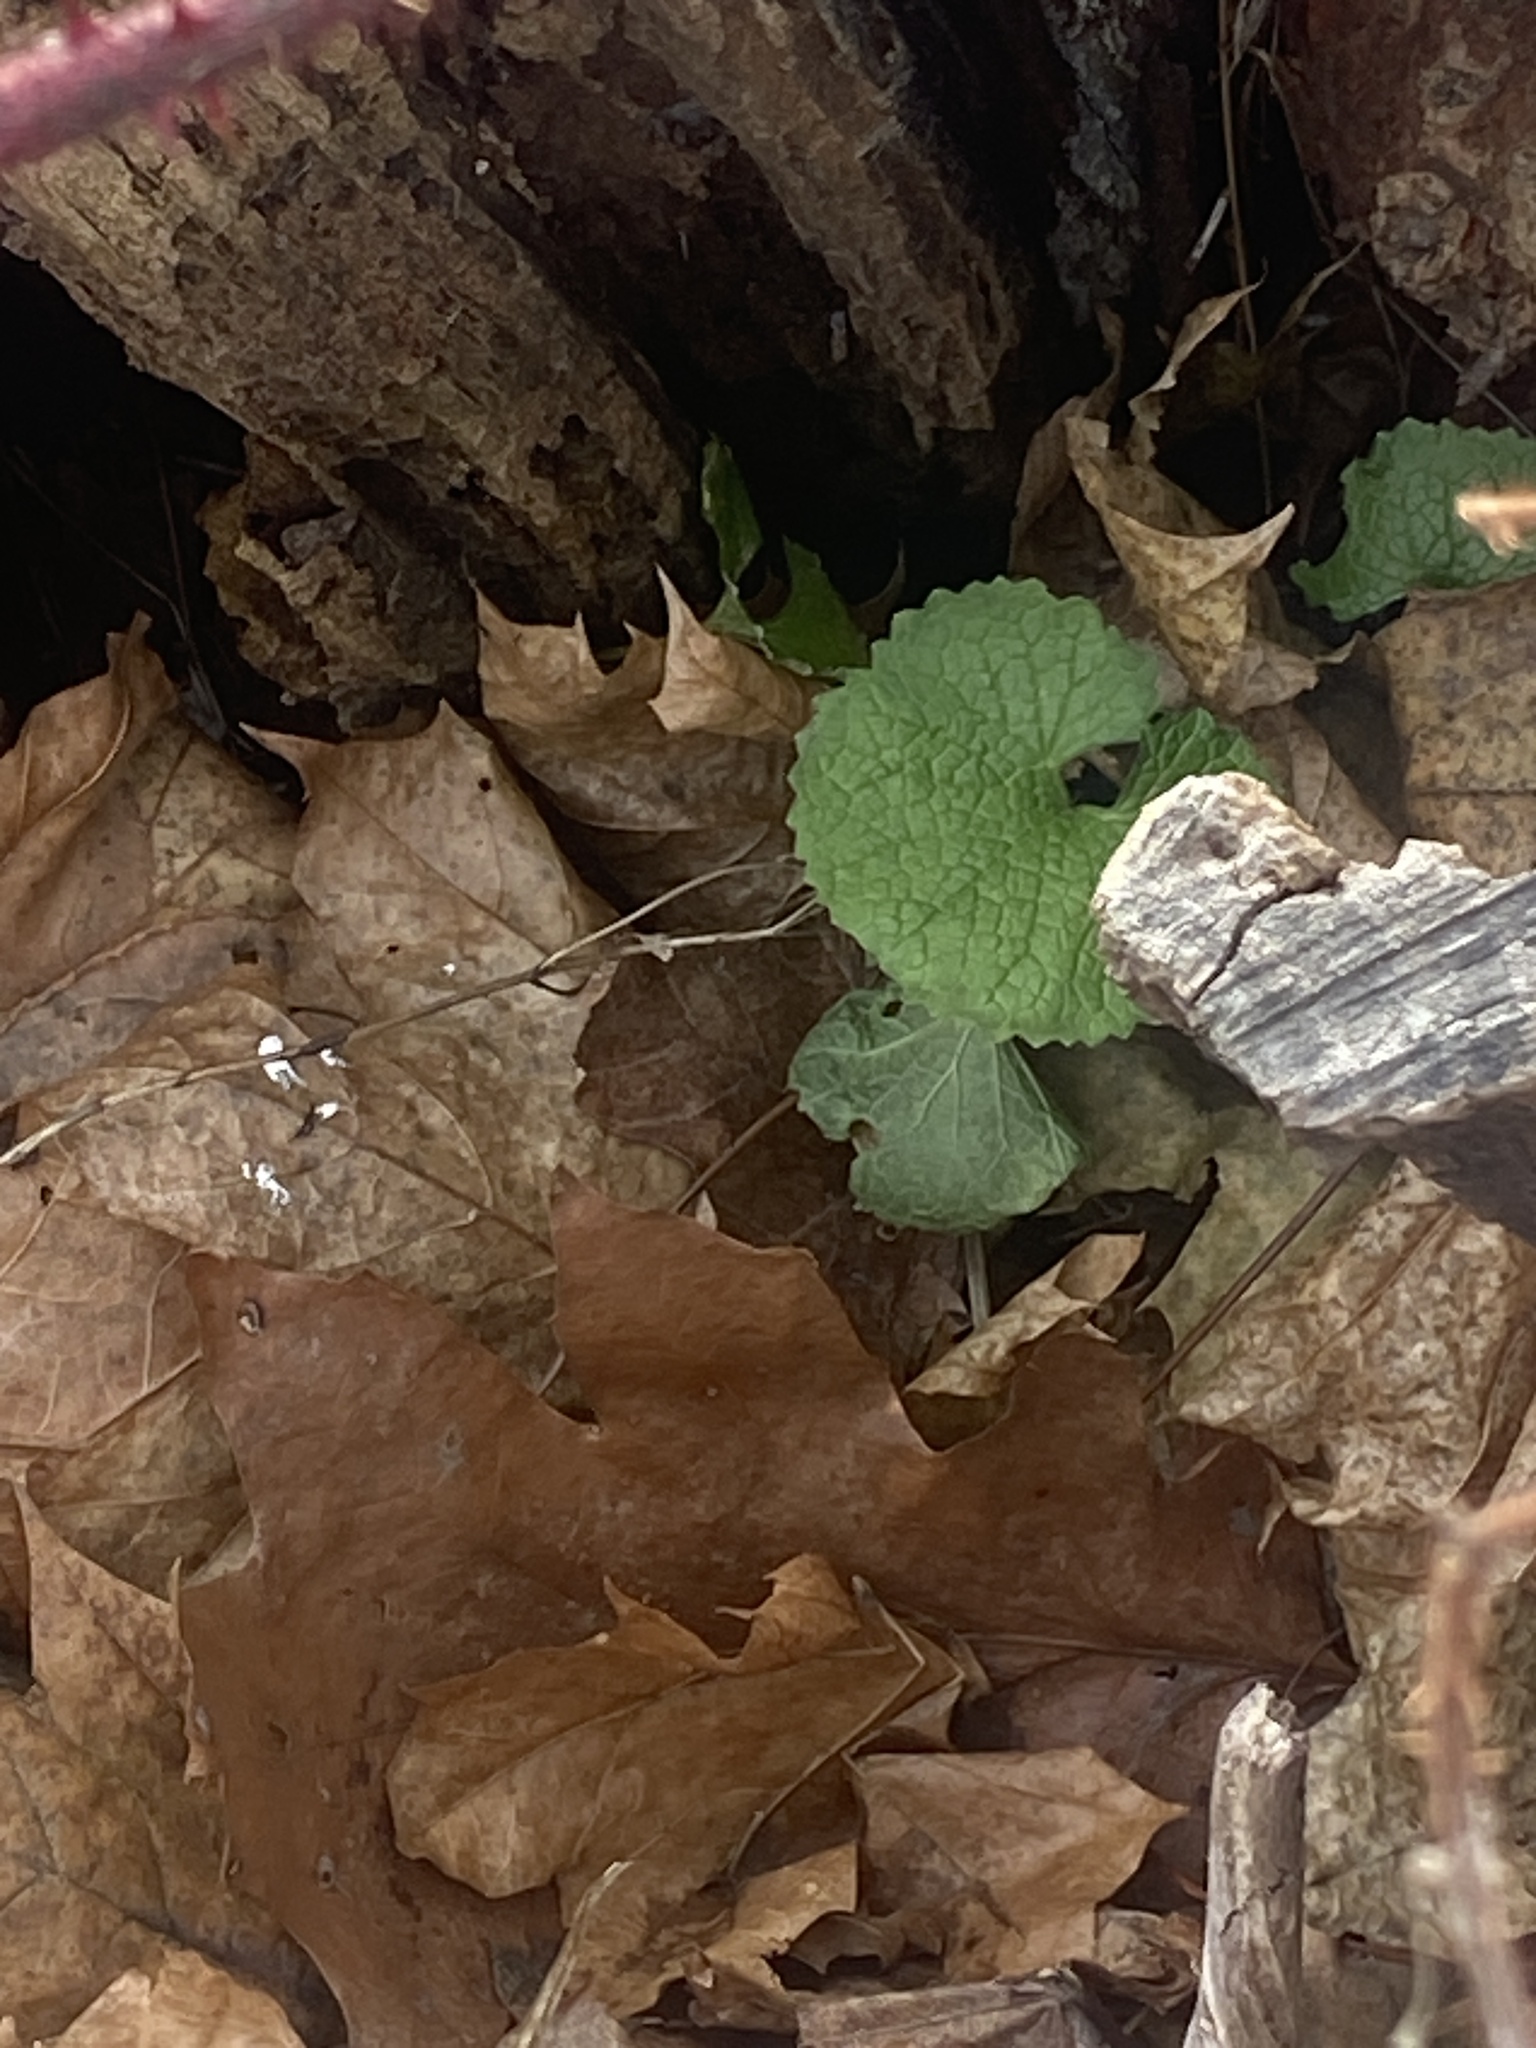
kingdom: Plantae
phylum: Tracheophyta
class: Magnoliopsida
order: Brassicales
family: Brassicaceae
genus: Alliaria
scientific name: Alliaria petiolata
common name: Garlic mustard
